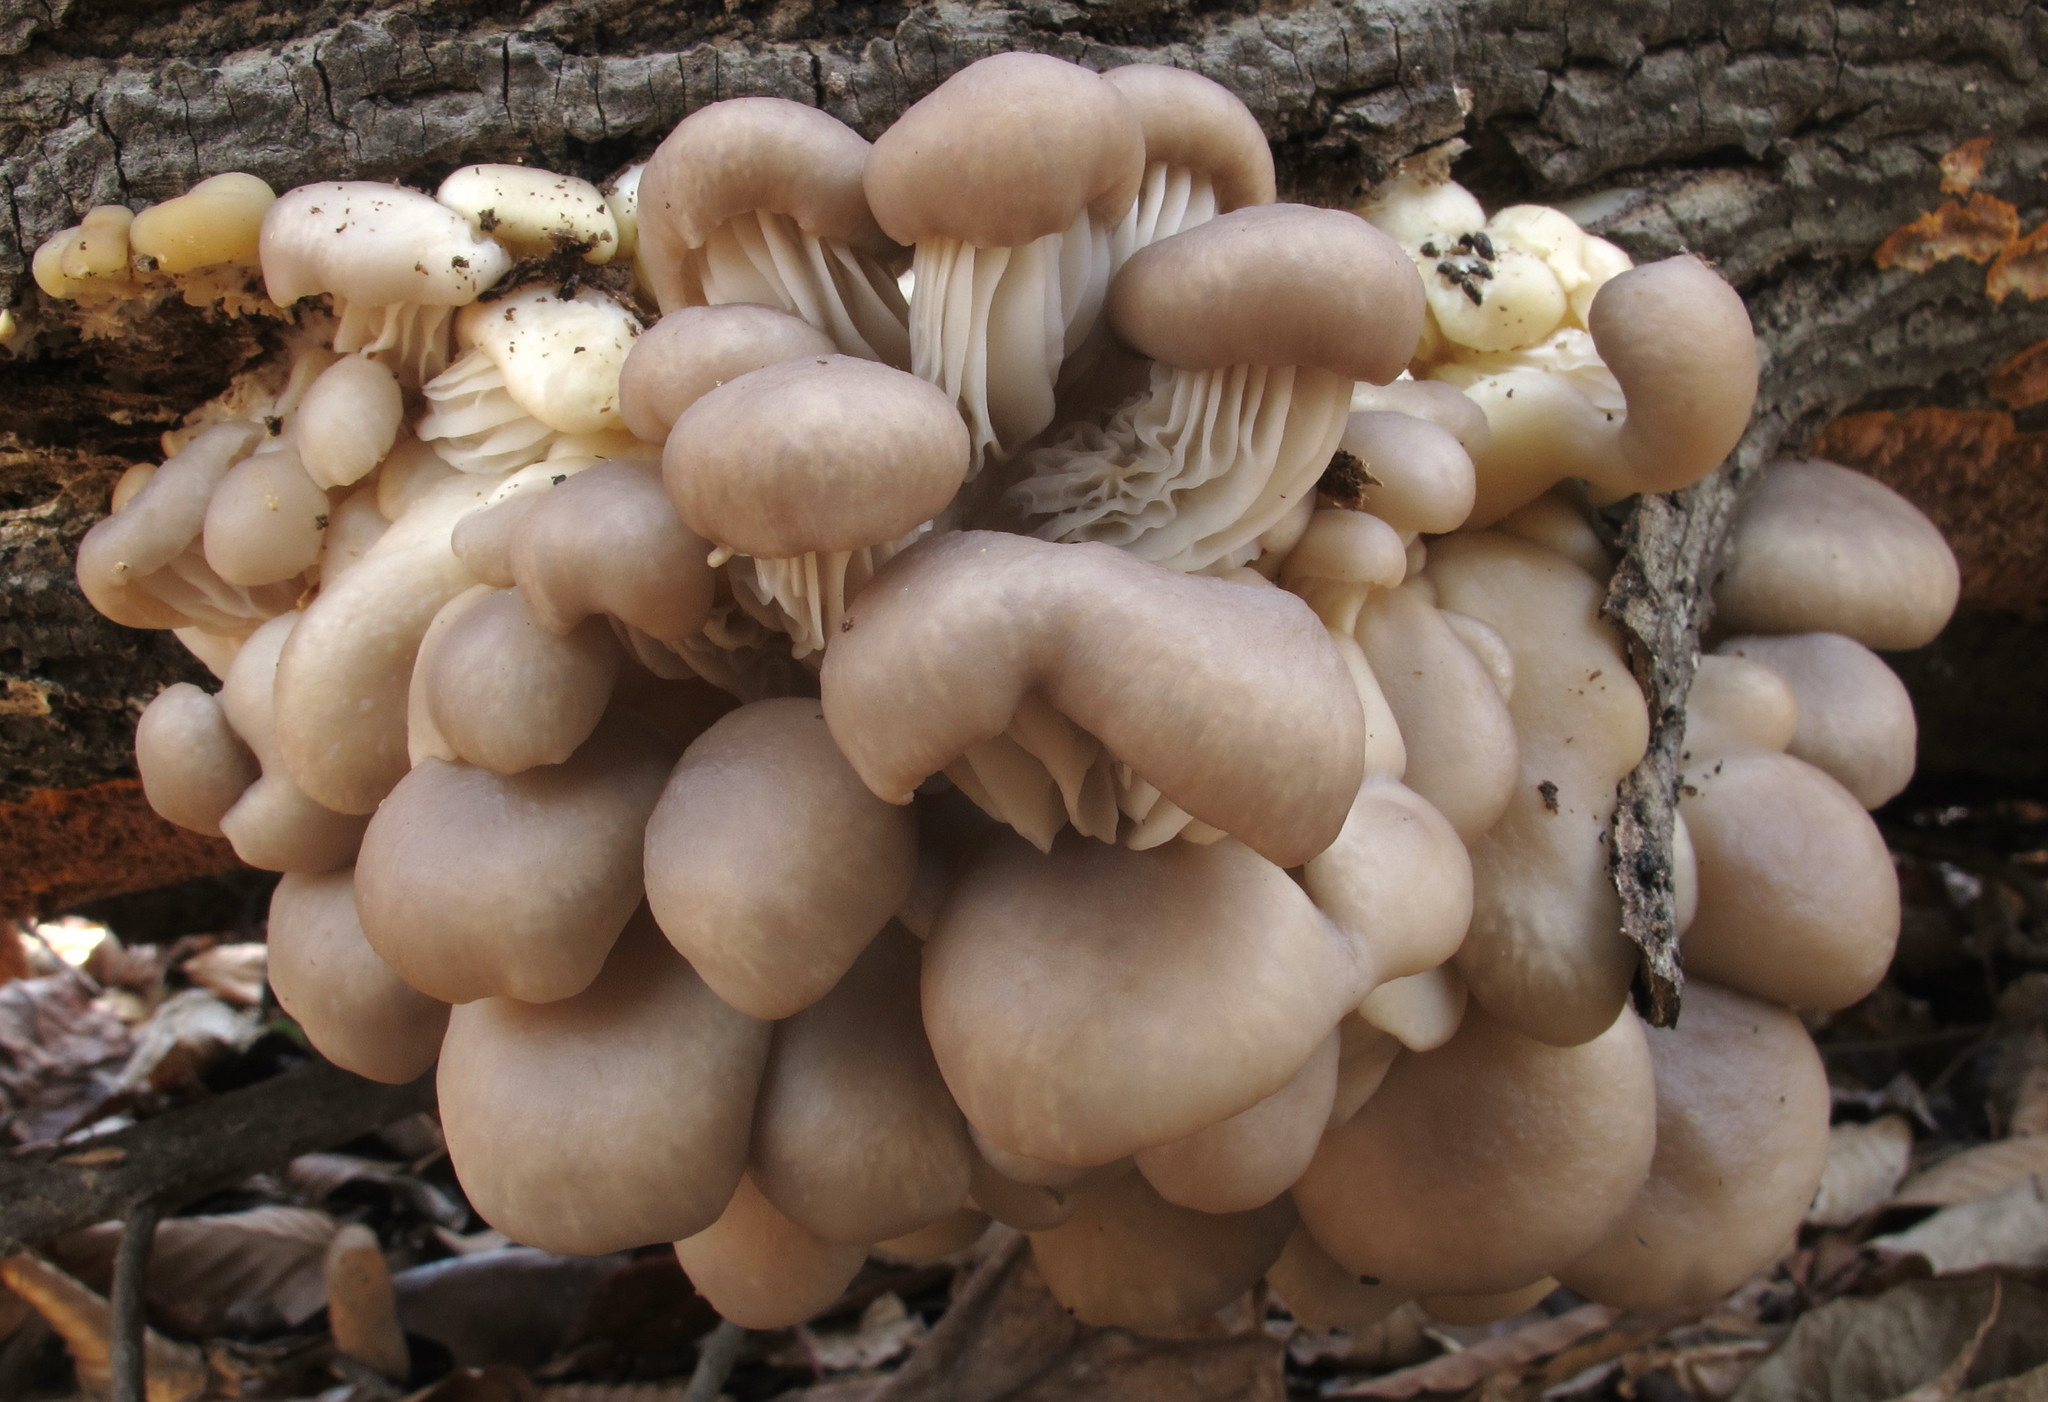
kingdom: Fungi
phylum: Basidiomycota
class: Agaricomycetes
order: Agaricales
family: Pleurotaceae
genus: Pleurotus
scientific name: Pleurotus ostreatus
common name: Oyster mushroom
